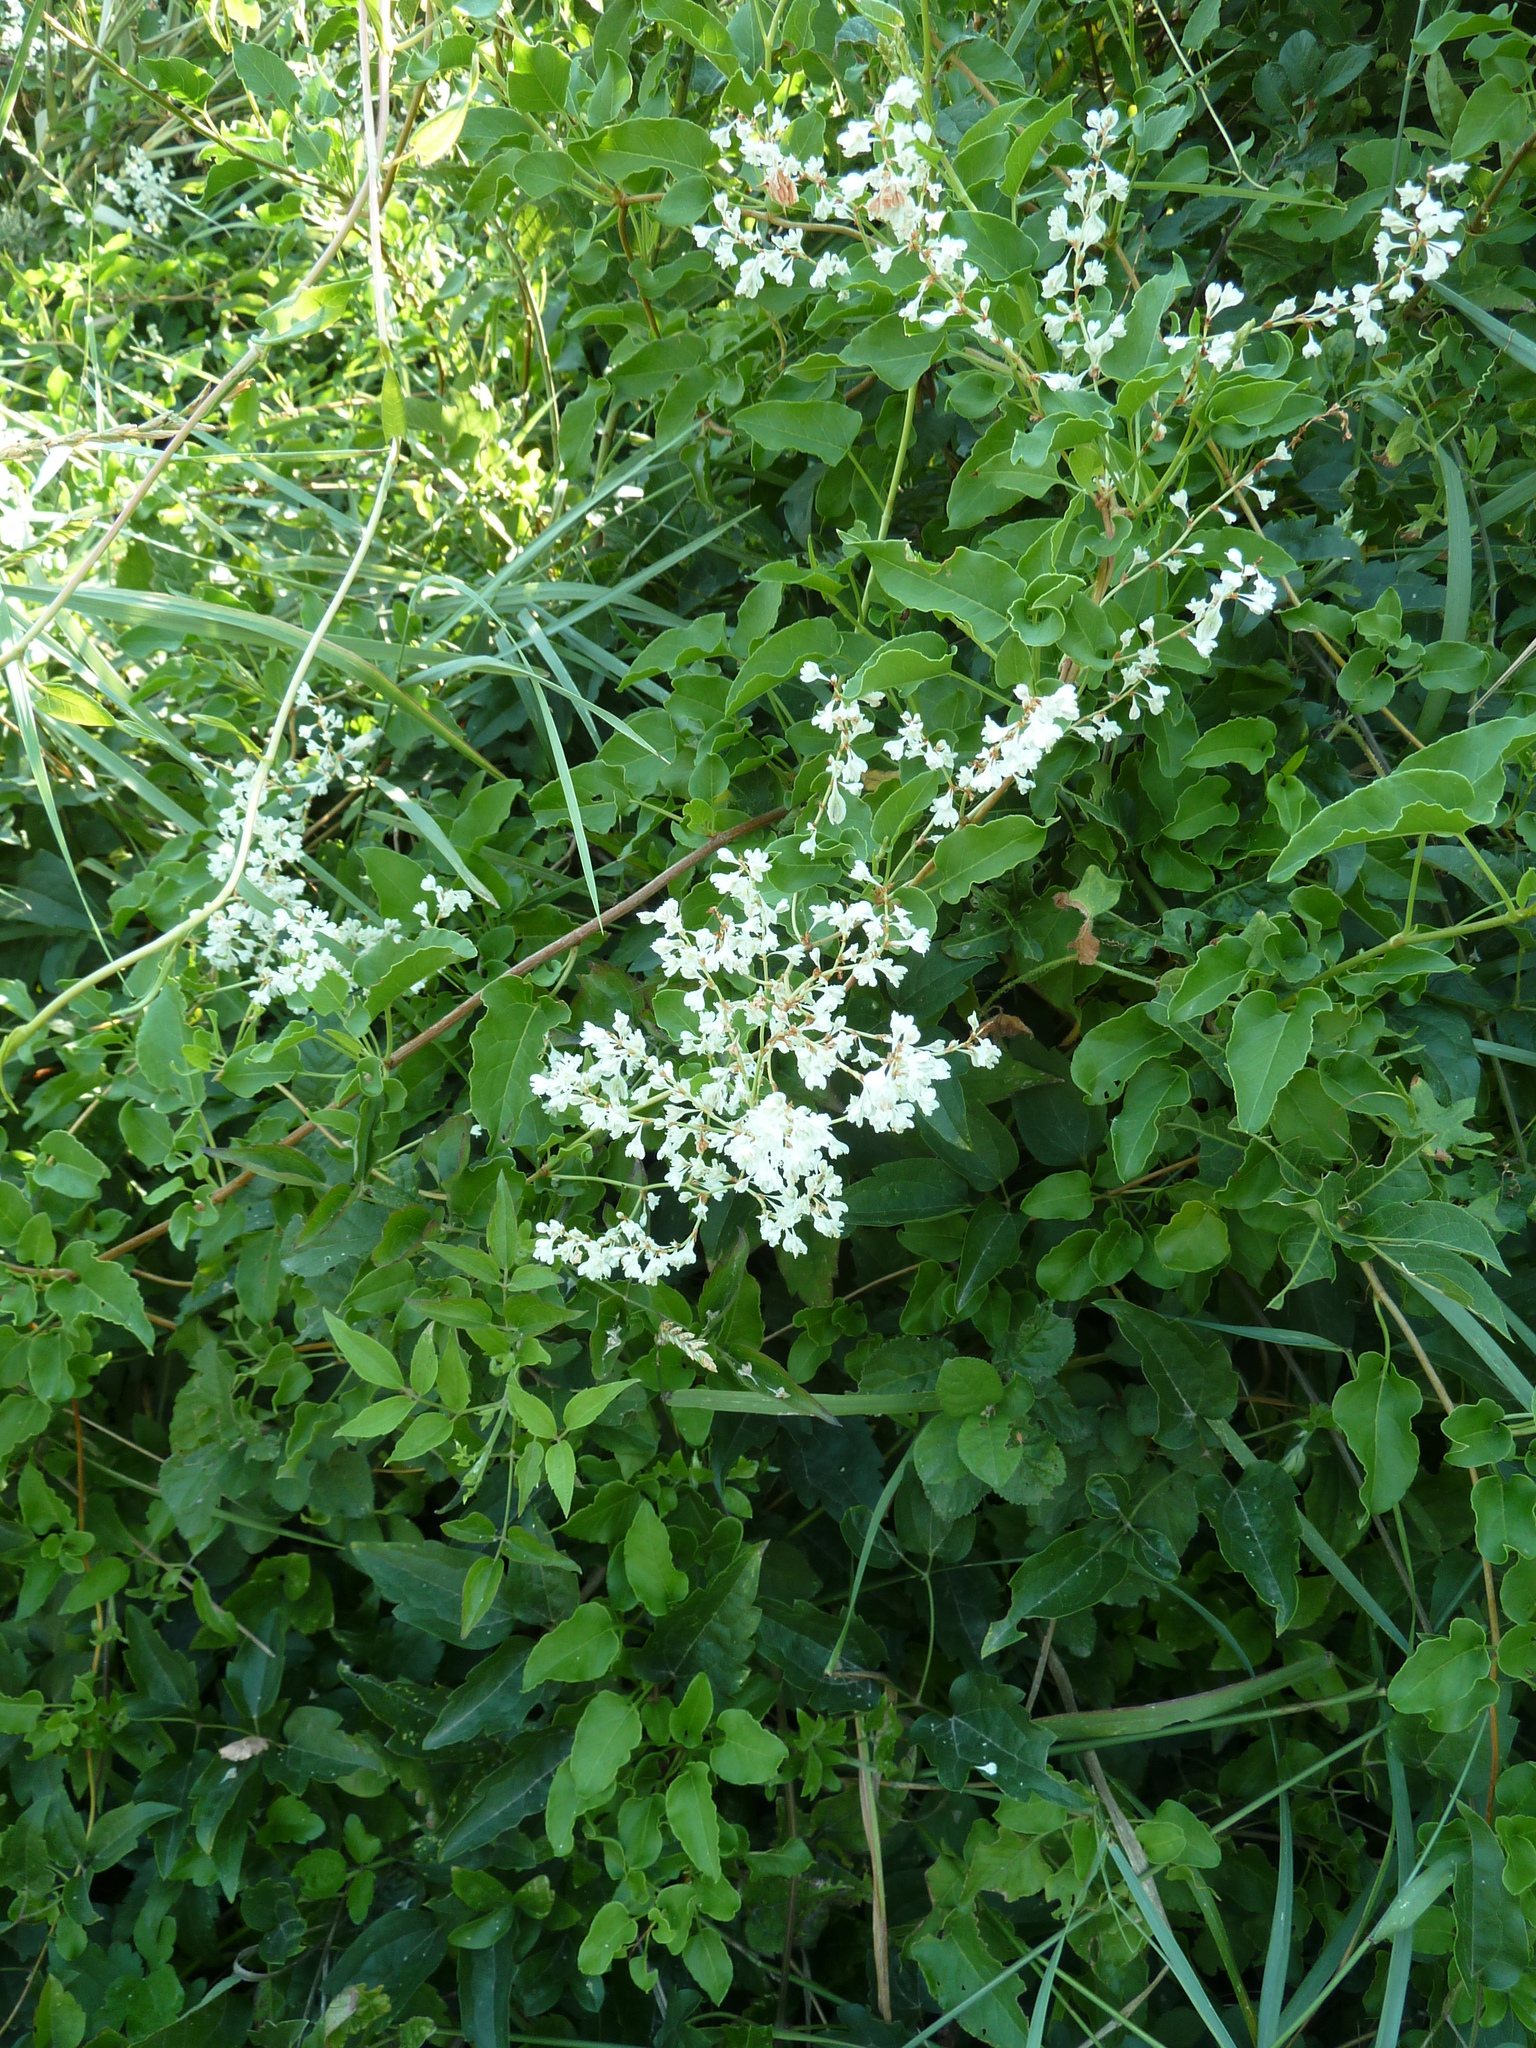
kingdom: Plantae
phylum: Tracheophyta
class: Magnoliopsida
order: Caryophyllales
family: Polygonaceae
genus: Fallopia
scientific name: Fallopia baldschuanica
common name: Russian-vine
